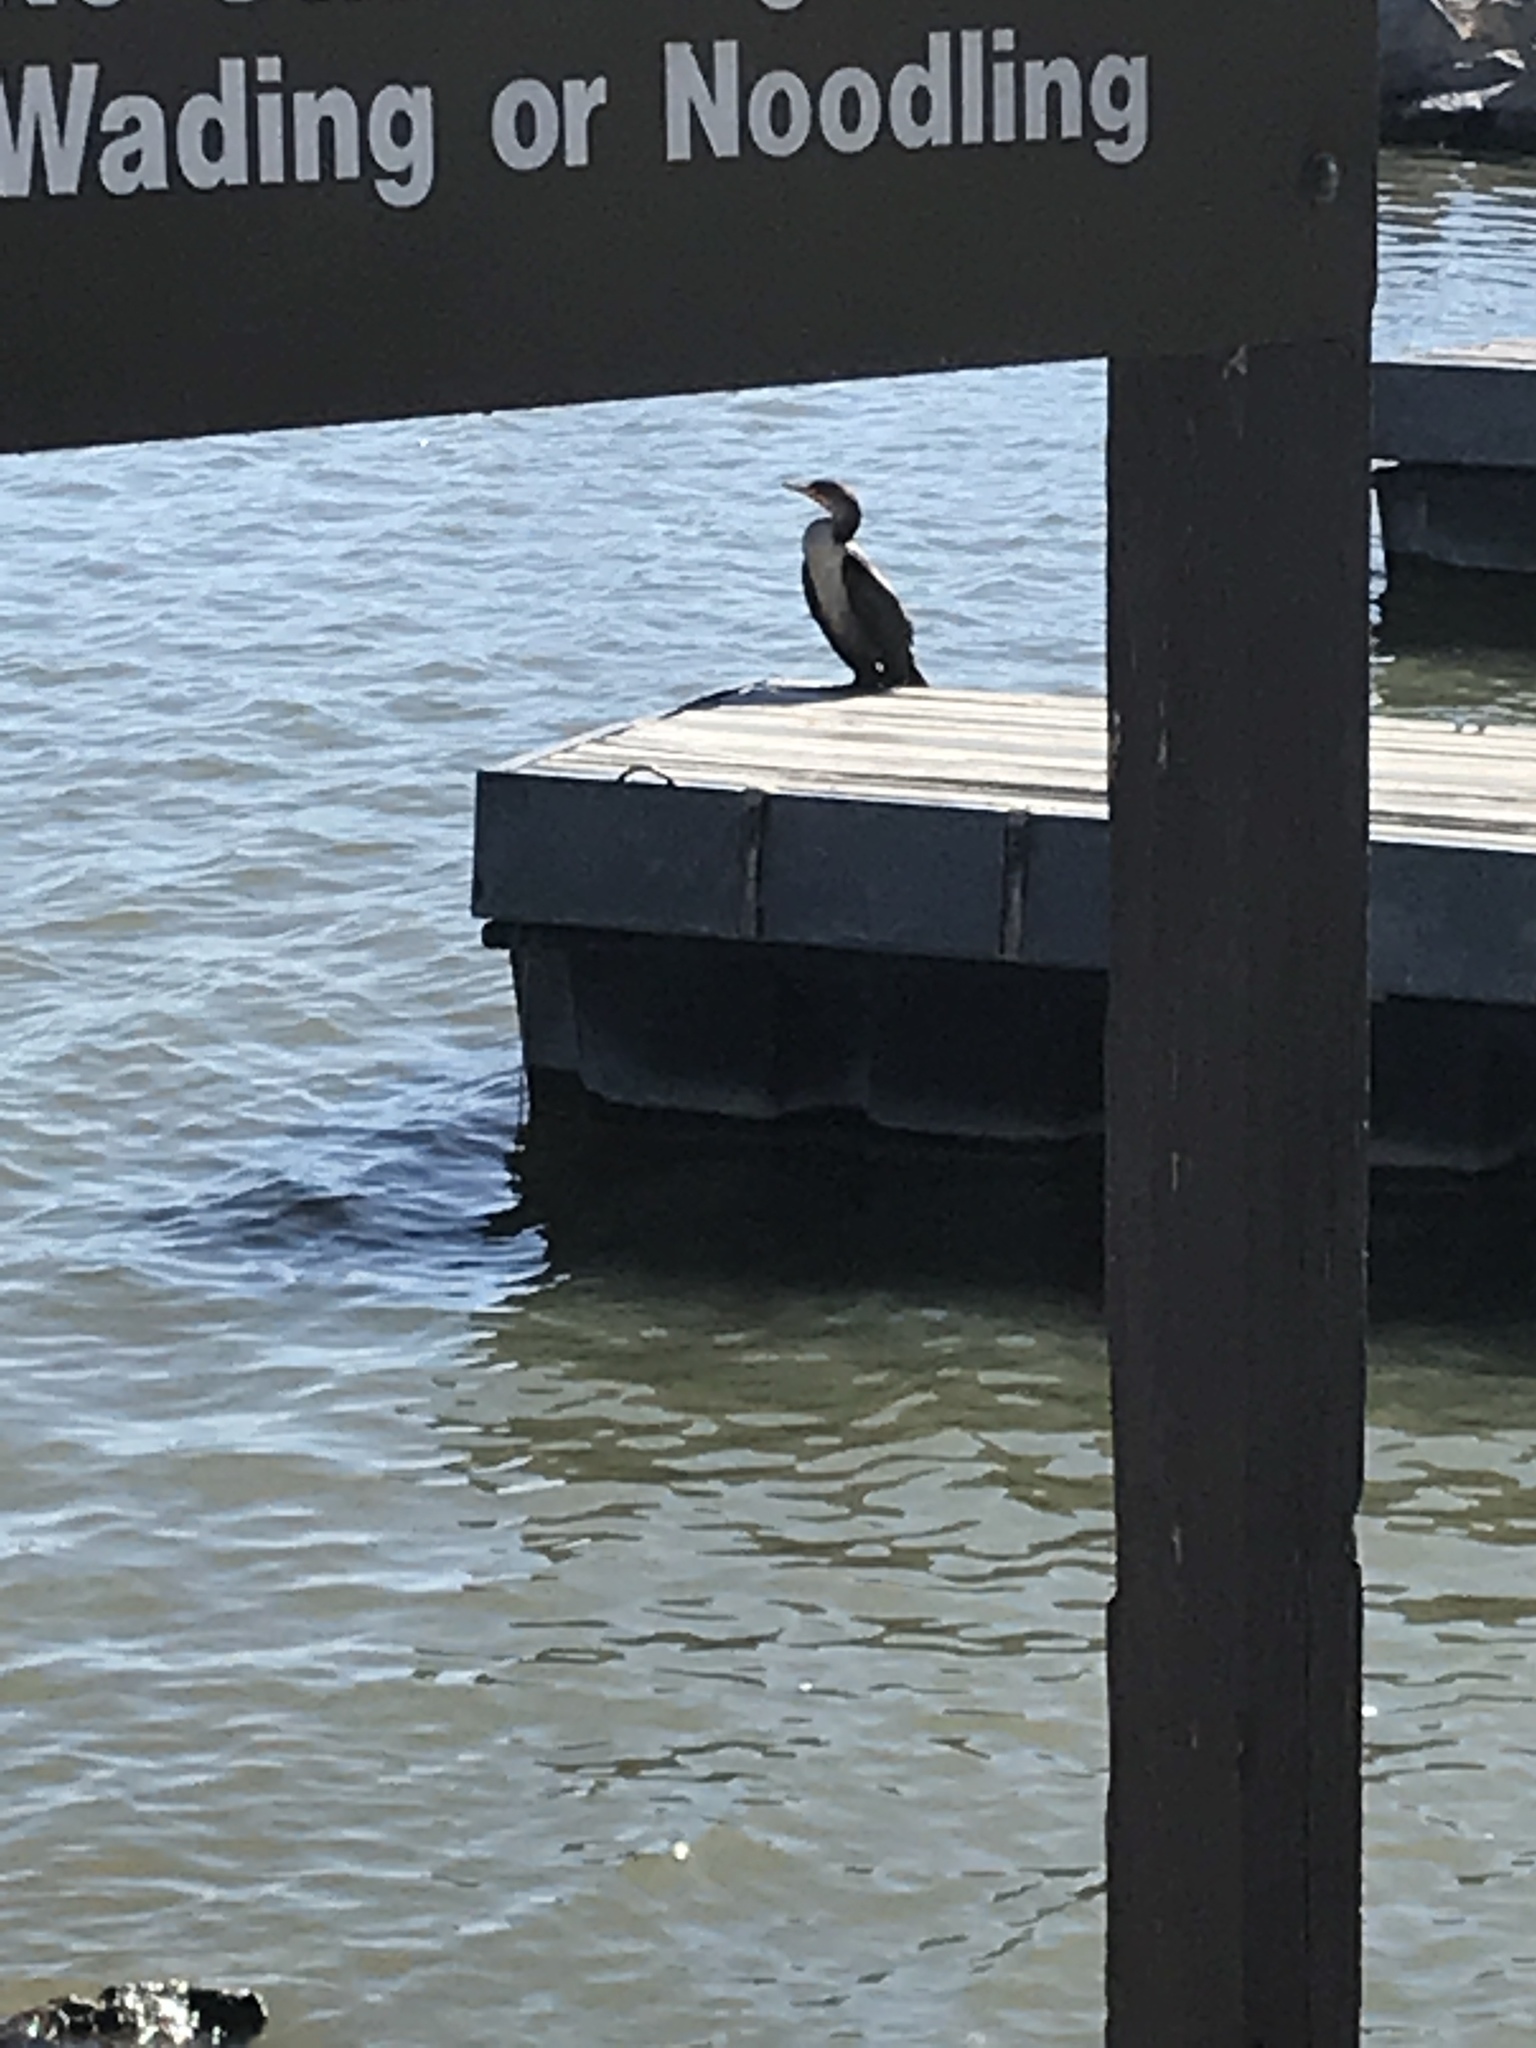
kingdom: Animalia
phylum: Chordata
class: Aves
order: Suliformes
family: Phalacrocoracidae
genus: Phalacrocorax
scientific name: Phalacrocorax auritus
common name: Double-crested cormorant
